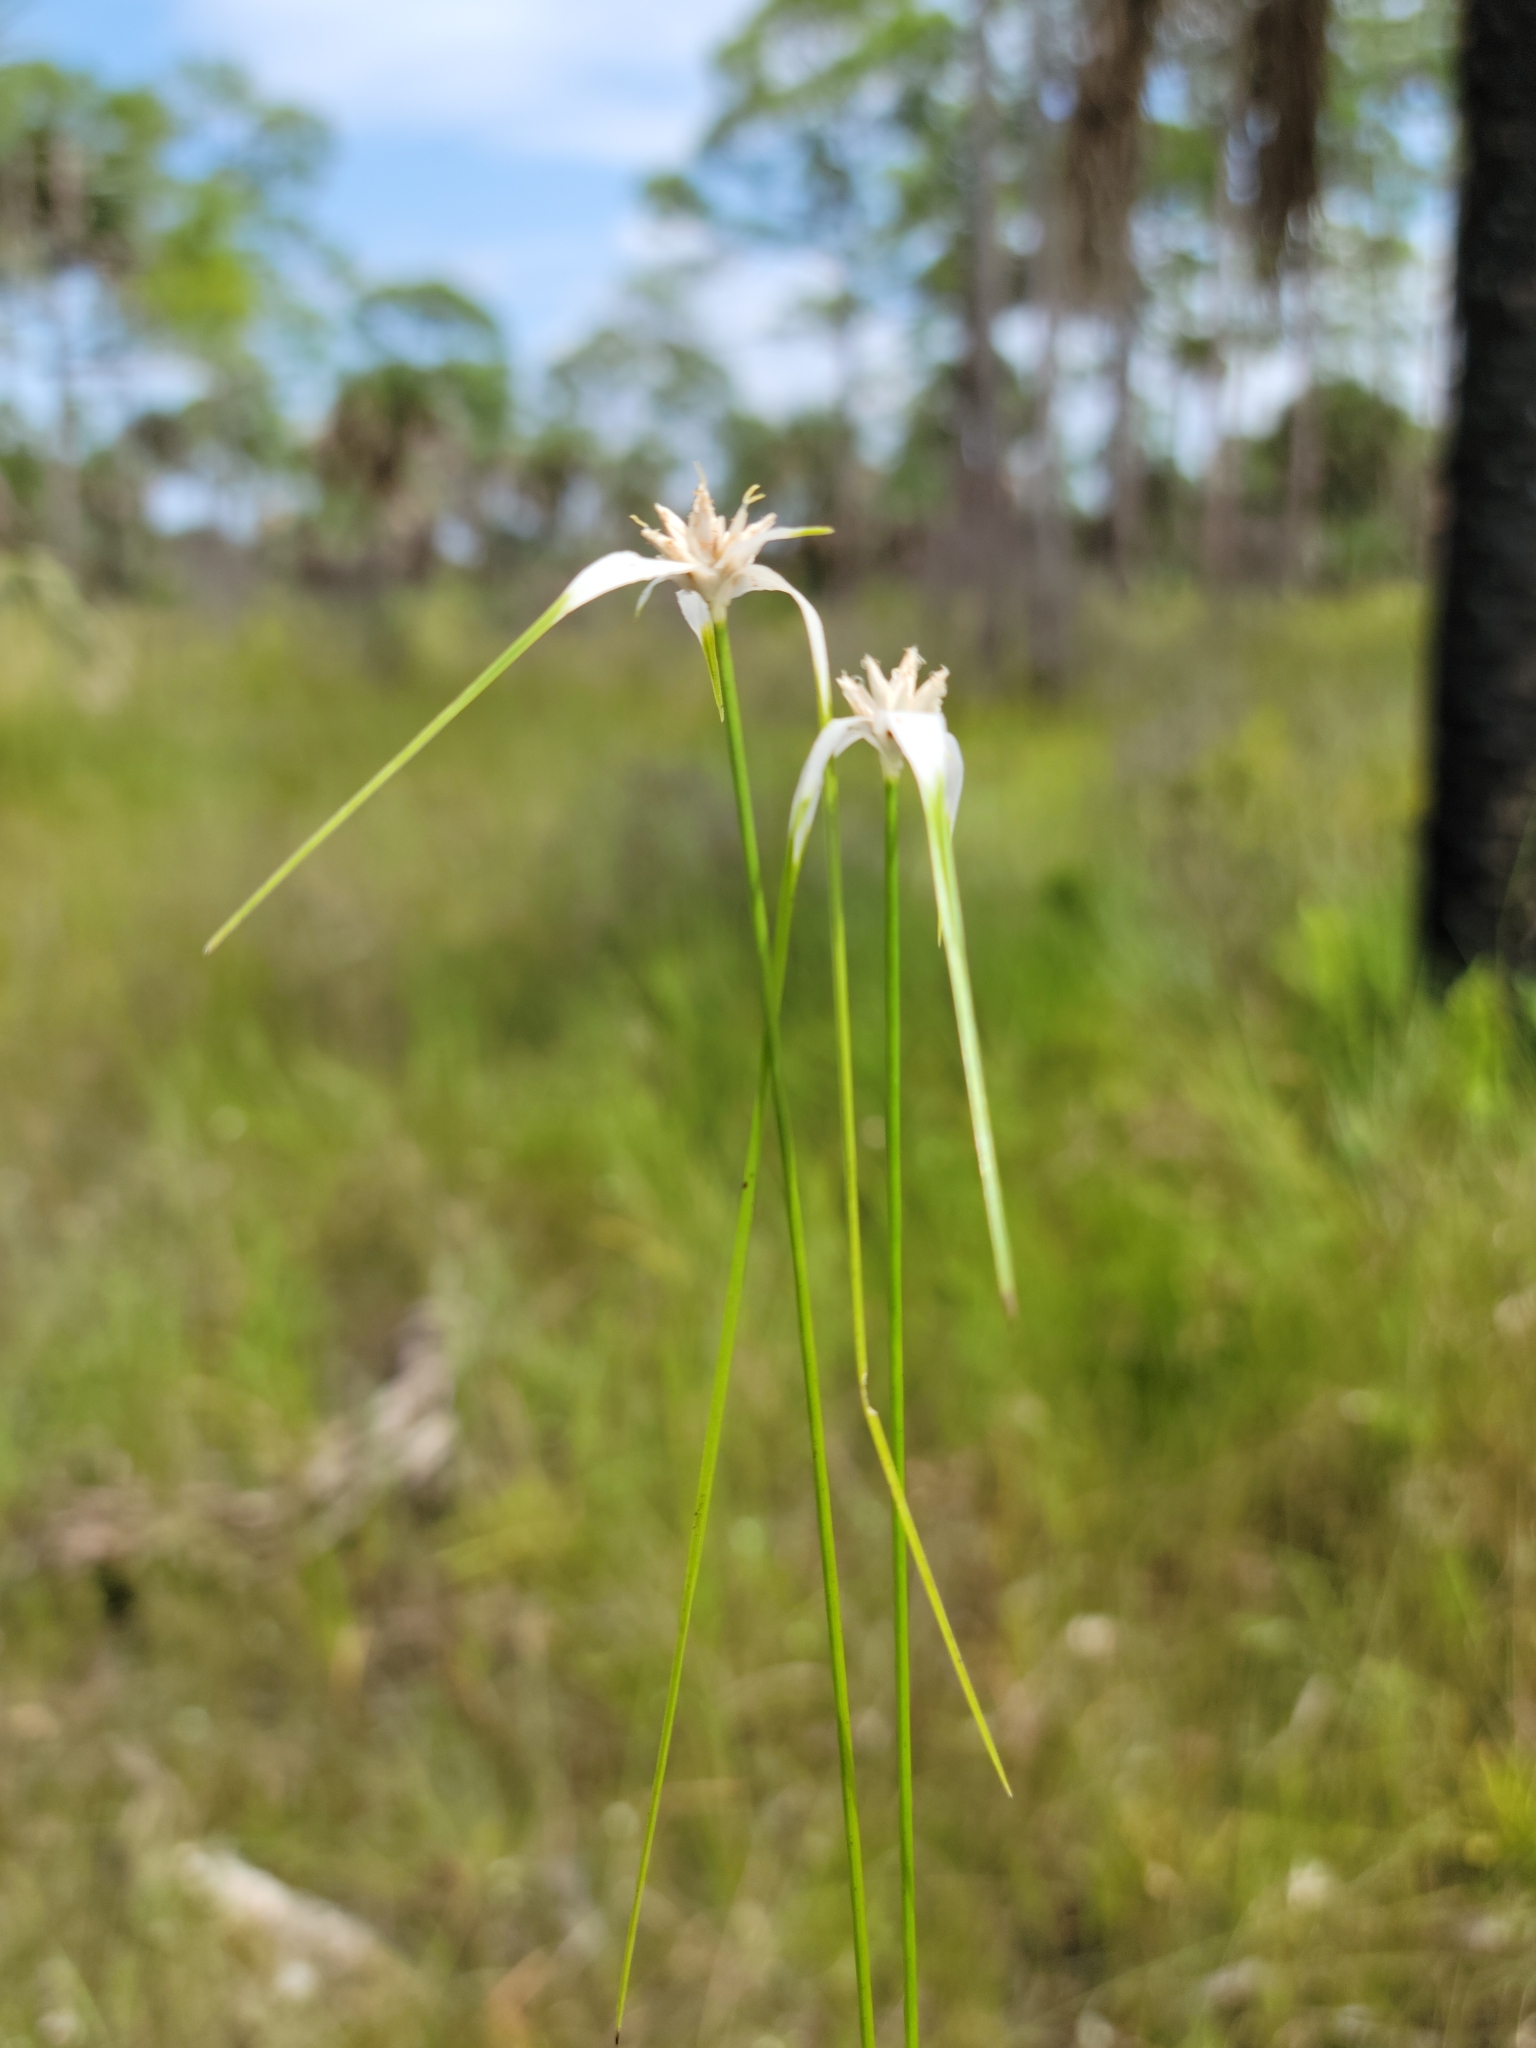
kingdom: Plantae
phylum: Tracheophyta
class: Liliopsida
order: Poales
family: Cyperaceae
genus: Rhynchospora
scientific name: Rhynchospora colorata
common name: Star sedge
